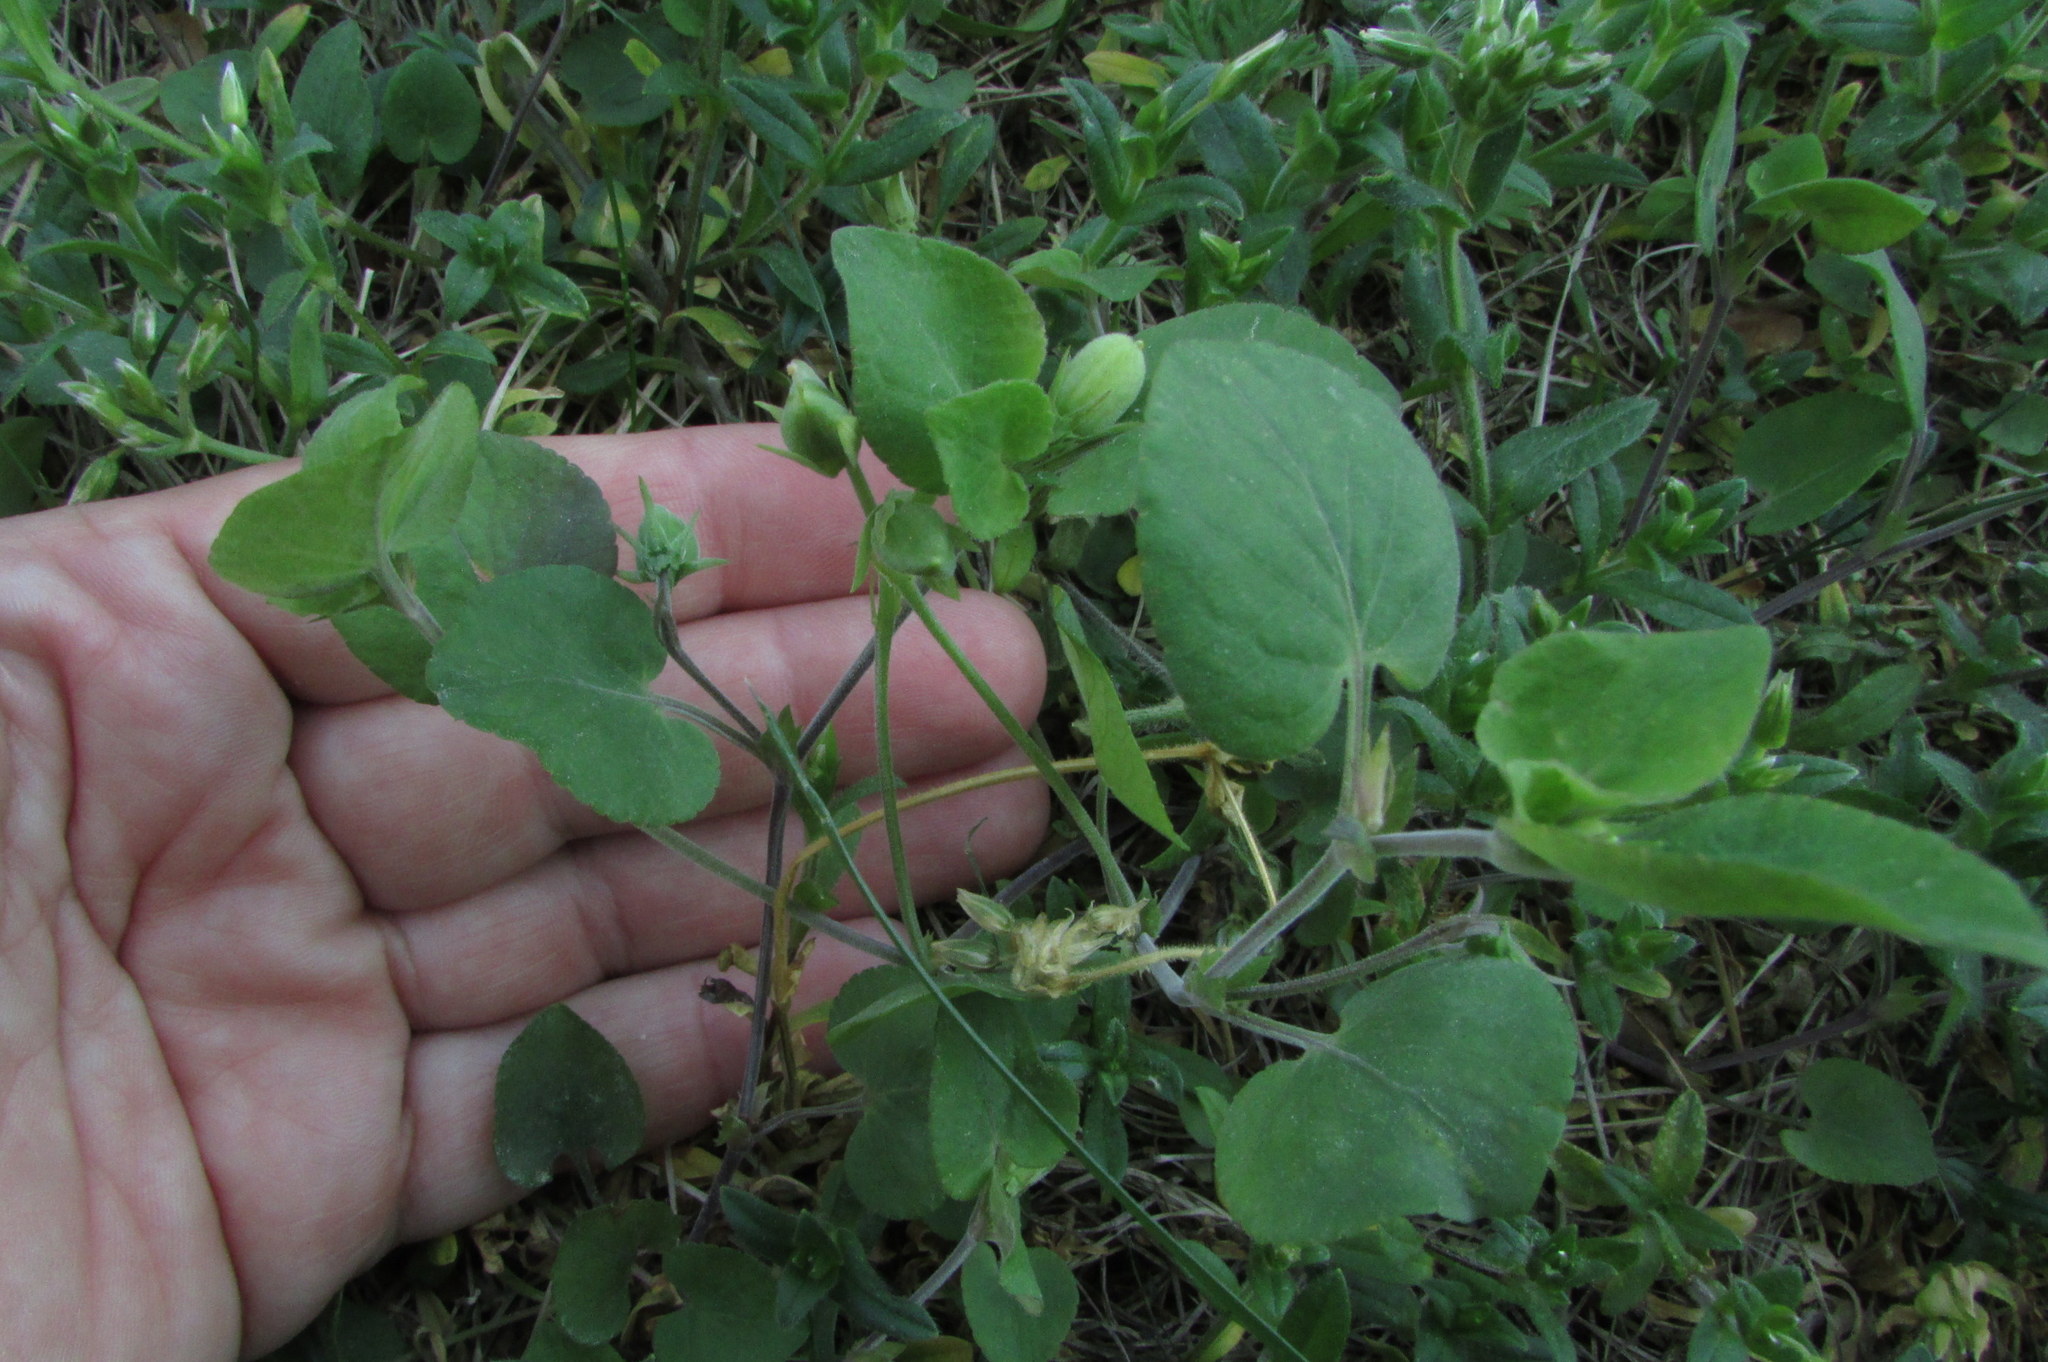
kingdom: Plantae
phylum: Tracheophyta
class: Magnoliopsida
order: Malpighiales
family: Violaceae
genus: Viola
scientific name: Viola rupestris
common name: Teesdale violet
